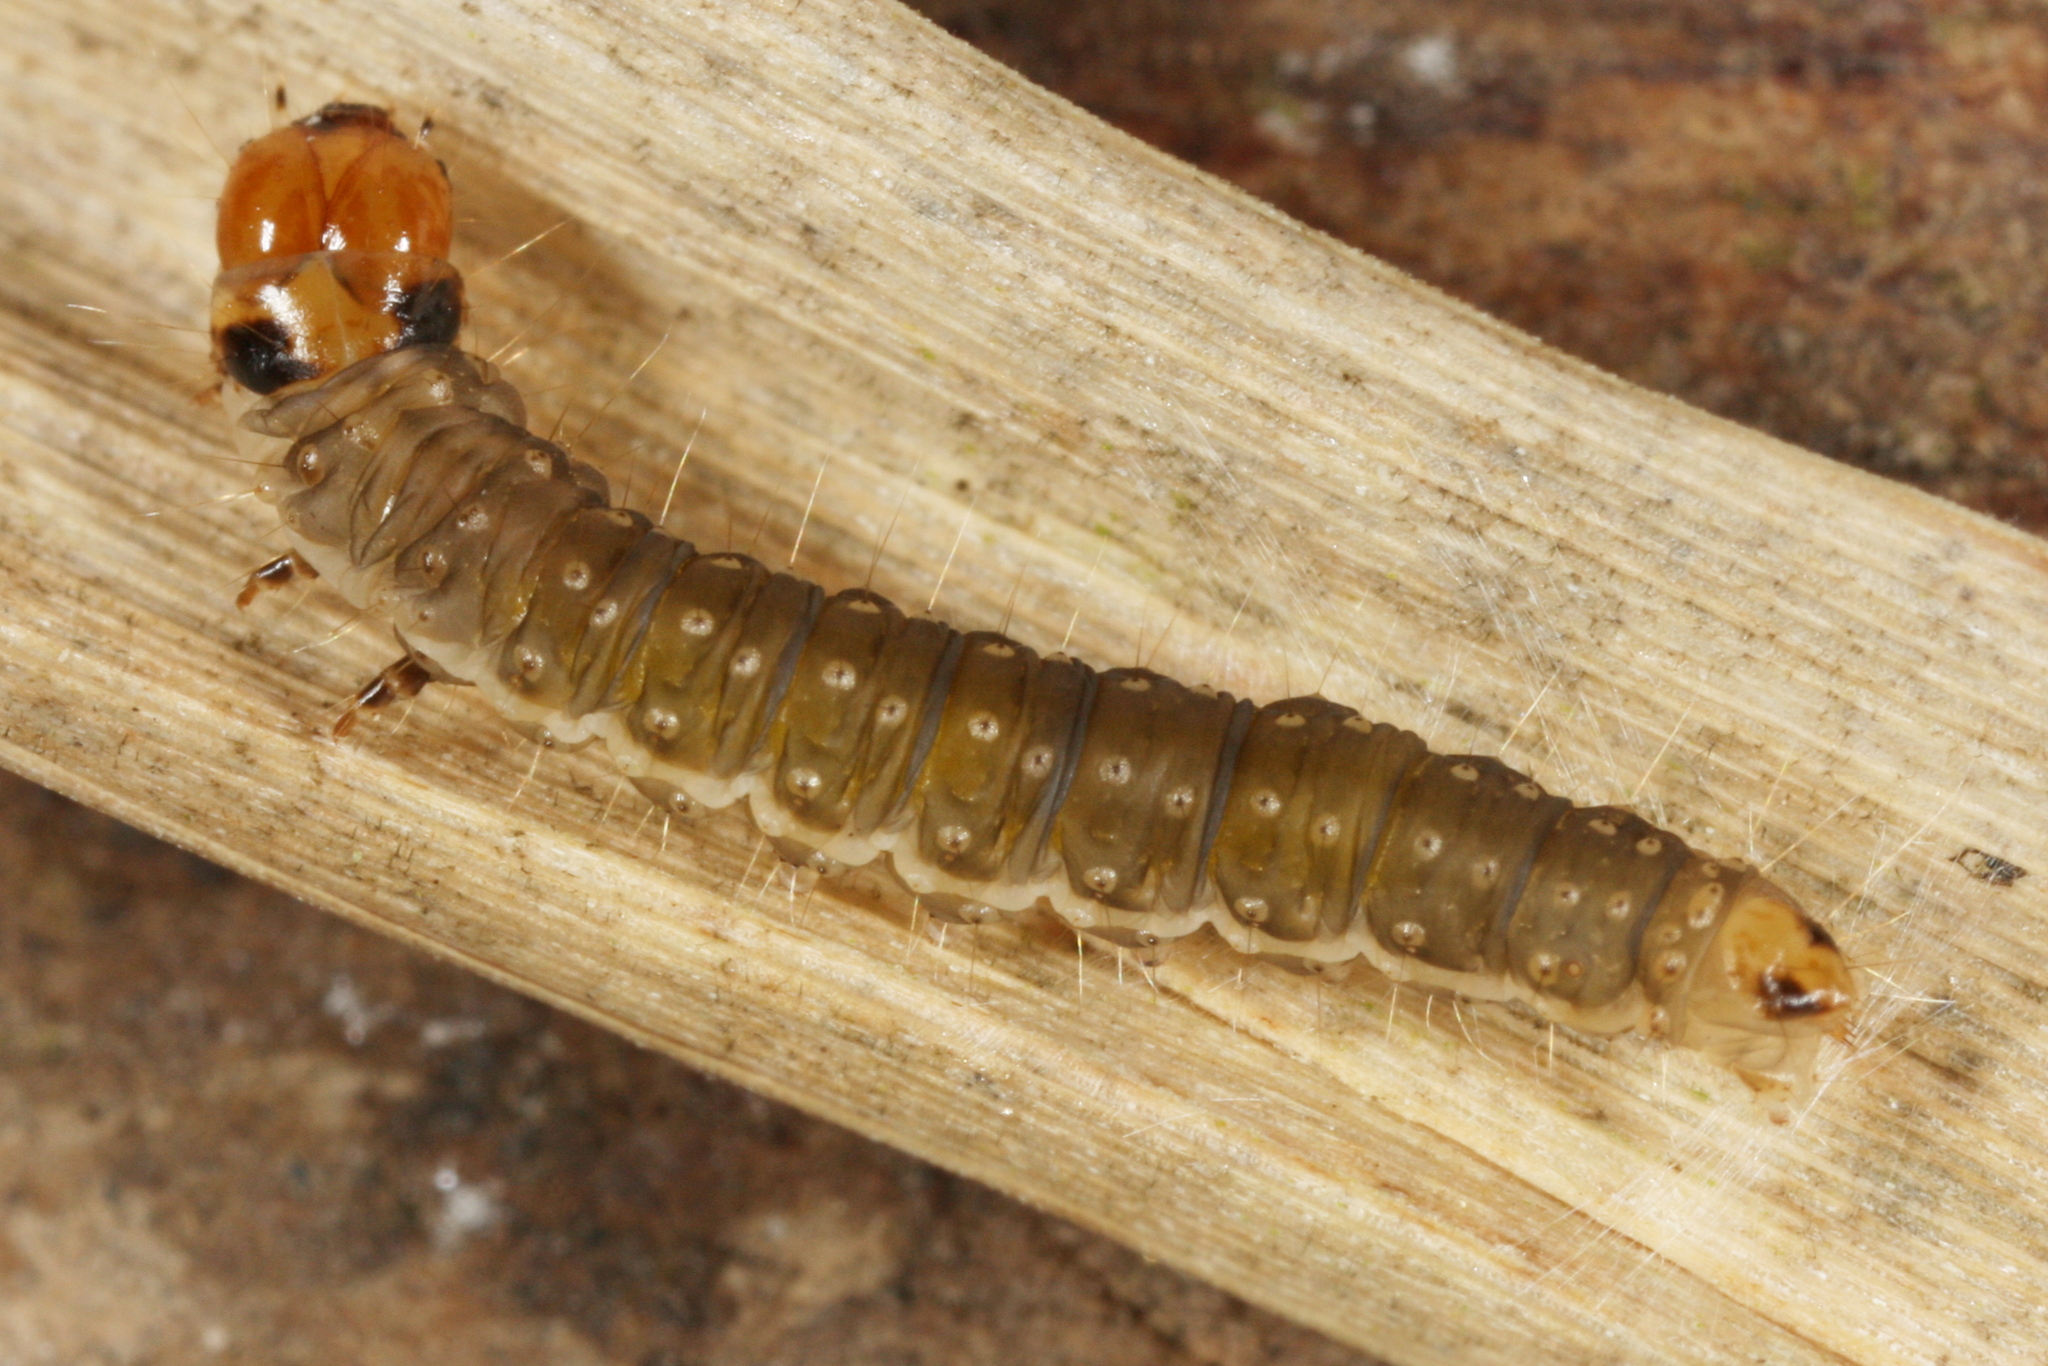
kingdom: Animalia
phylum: Arthropoda
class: Insecta
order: Lepidoptera
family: Tortricidae
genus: Syndemis
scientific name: Syndemis musculana
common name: Dark-barred twist
